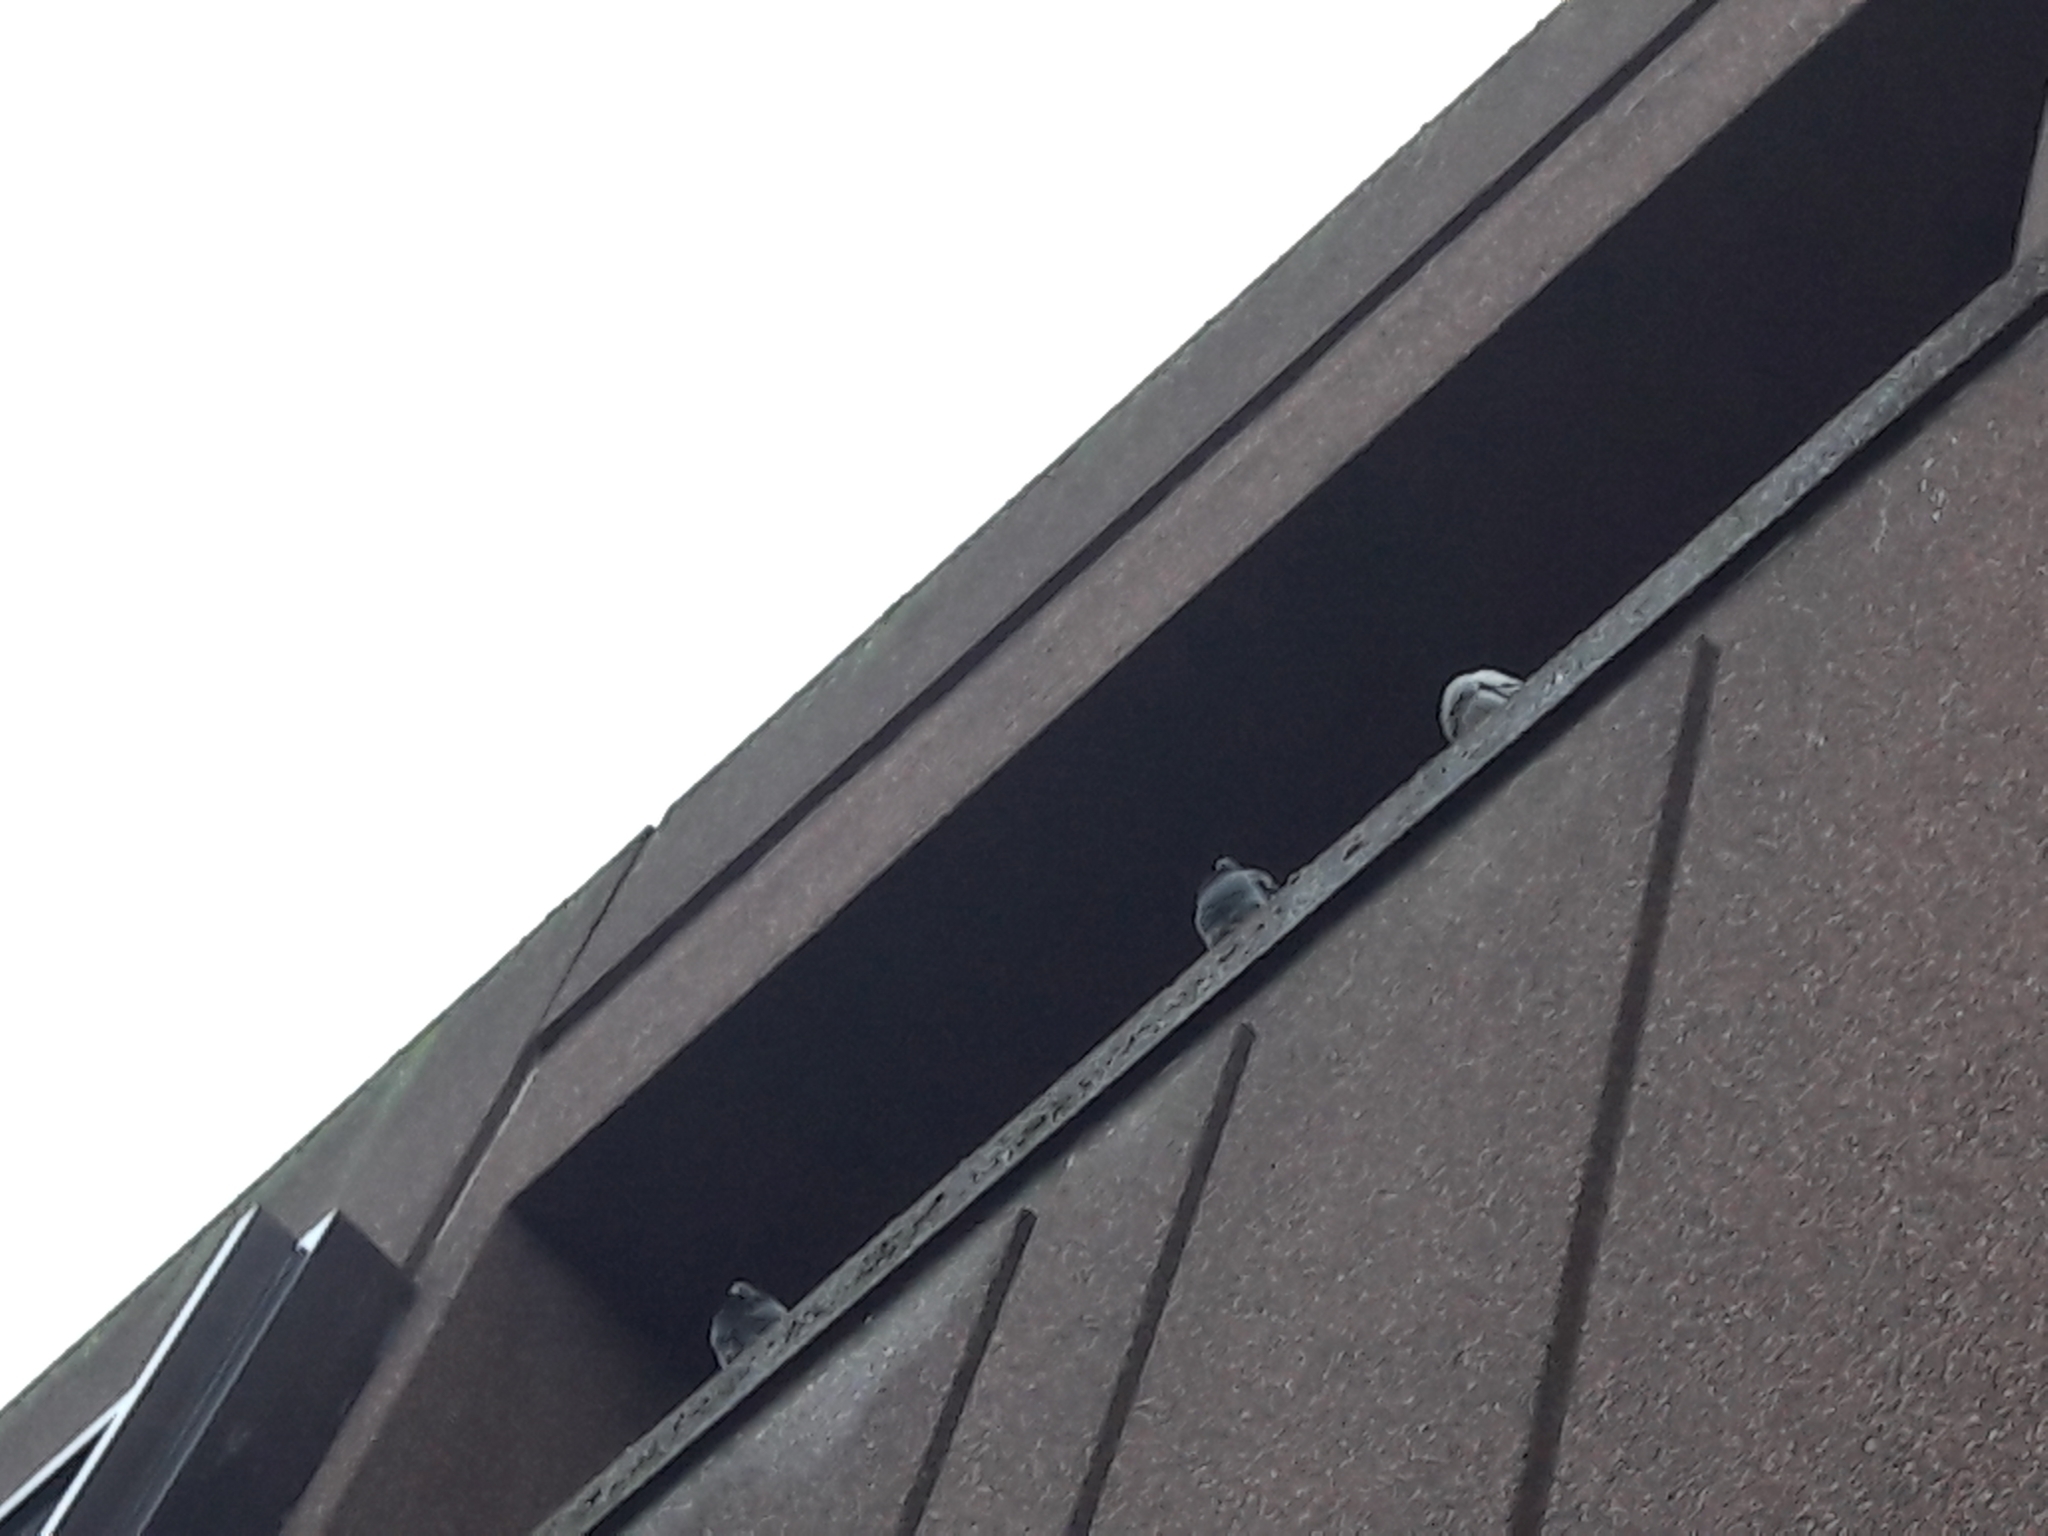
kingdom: Animalia
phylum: Chordata
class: Aves
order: Columbiformes
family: Columbidae
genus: Columba
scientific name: Columba livia
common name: Rock pigeon
